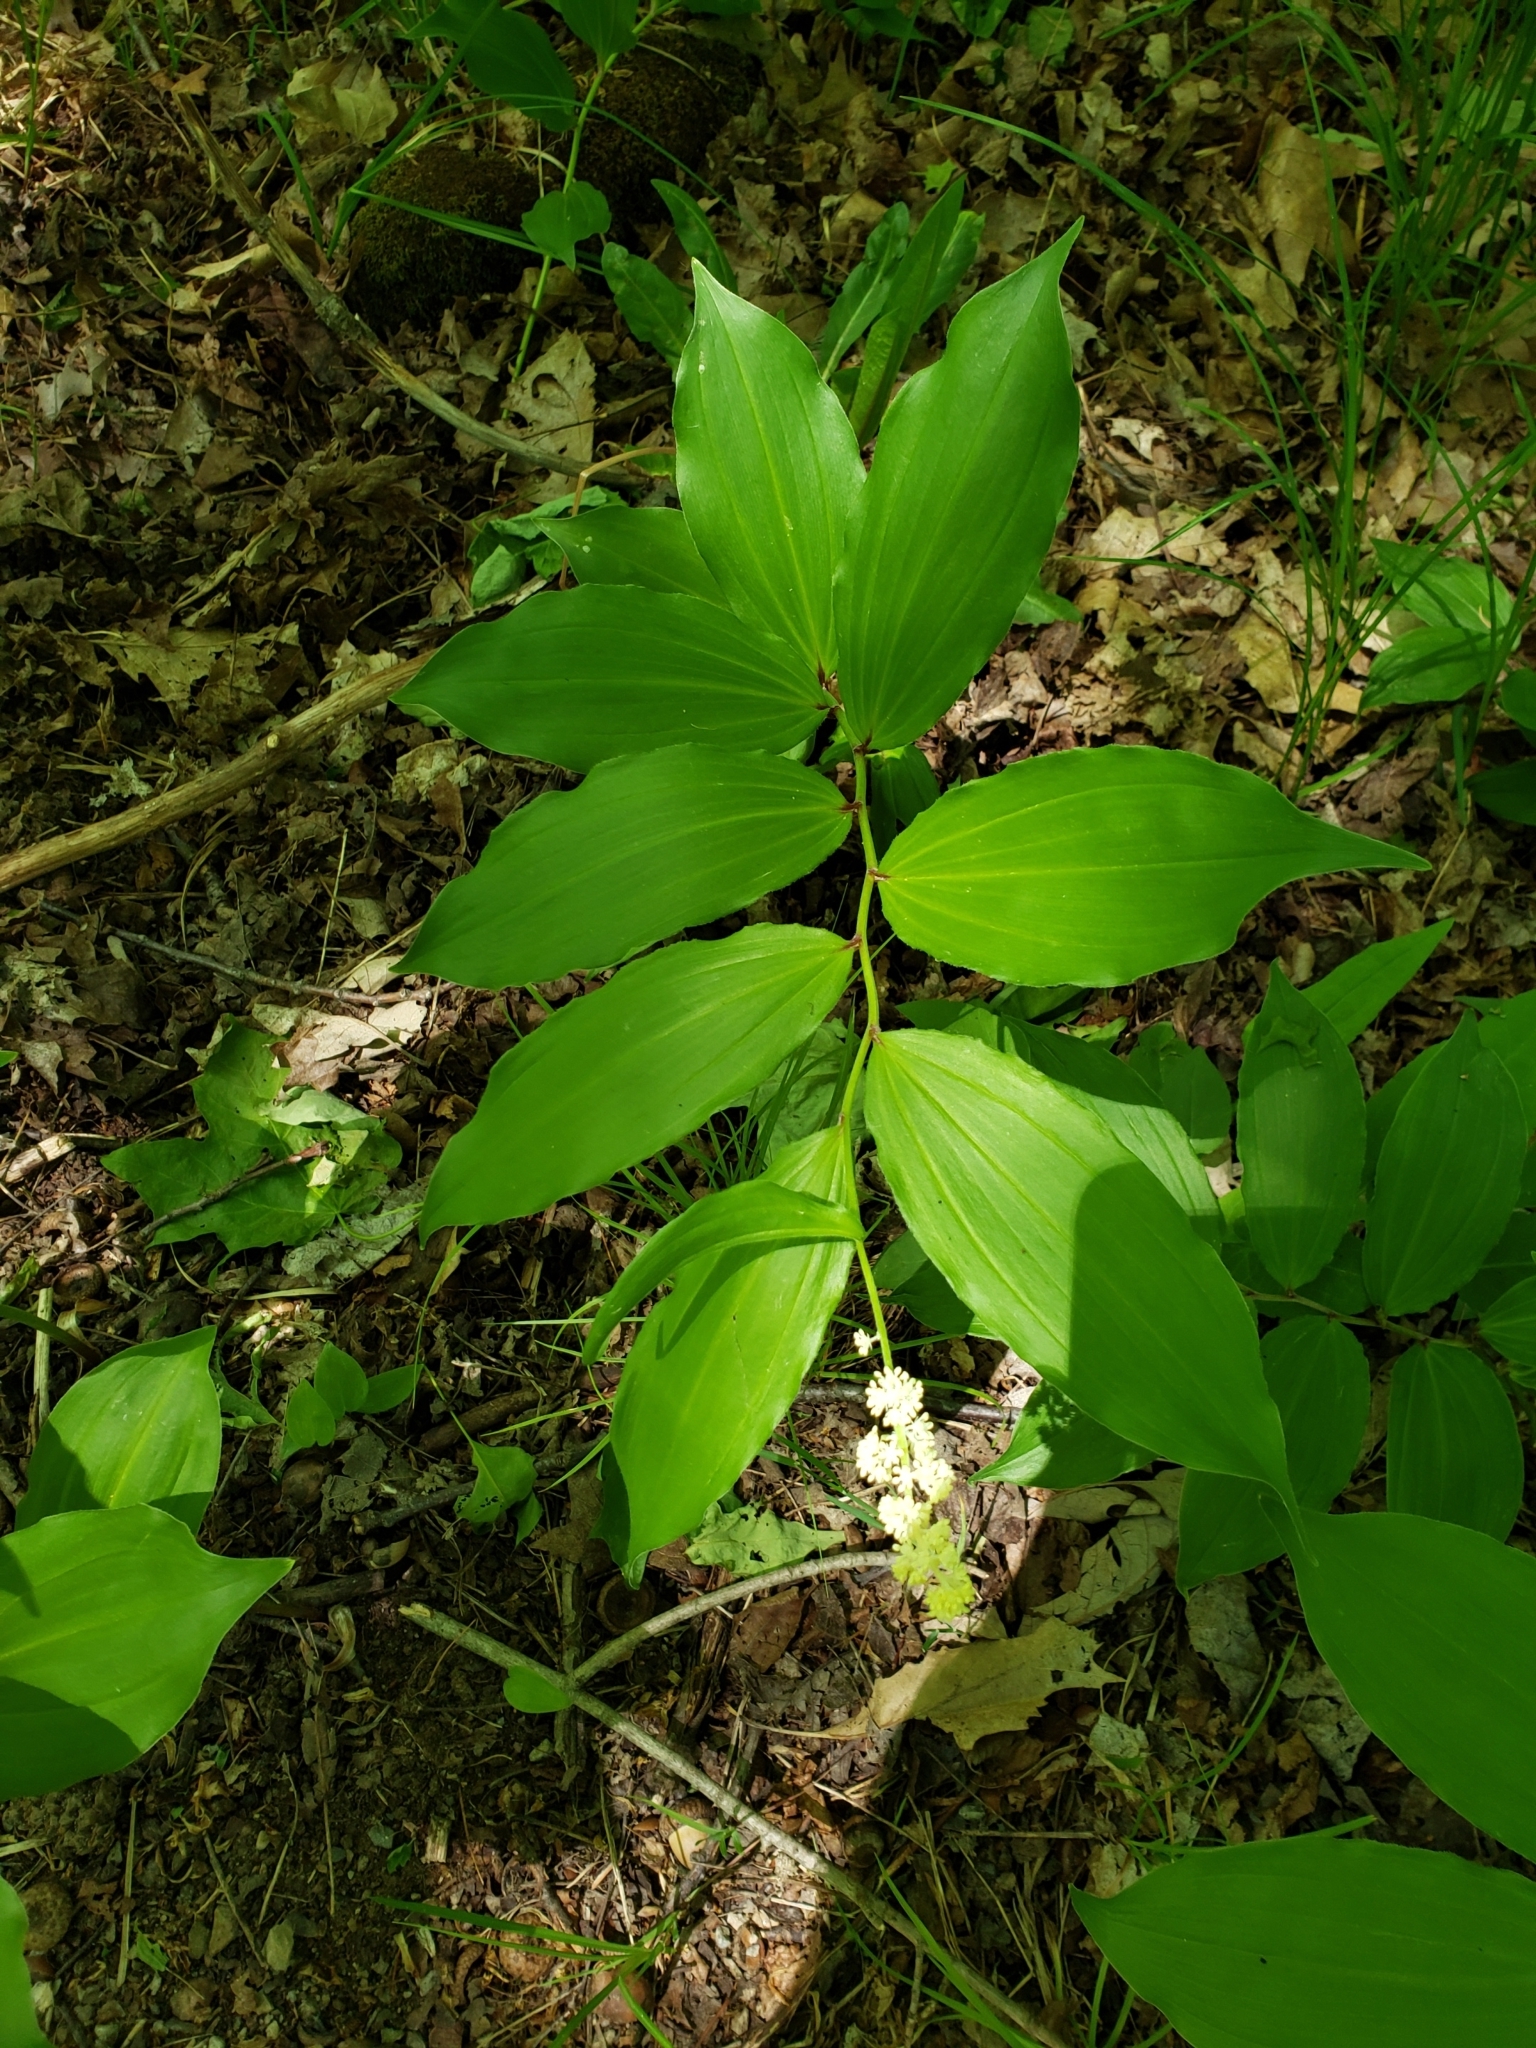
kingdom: Plantae
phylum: Tracheophyta
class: Liliopsida
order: Asparagales
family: Asparagaceae
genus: Maianthemum
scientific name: Maianthemum racemosum
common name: False spikenard
